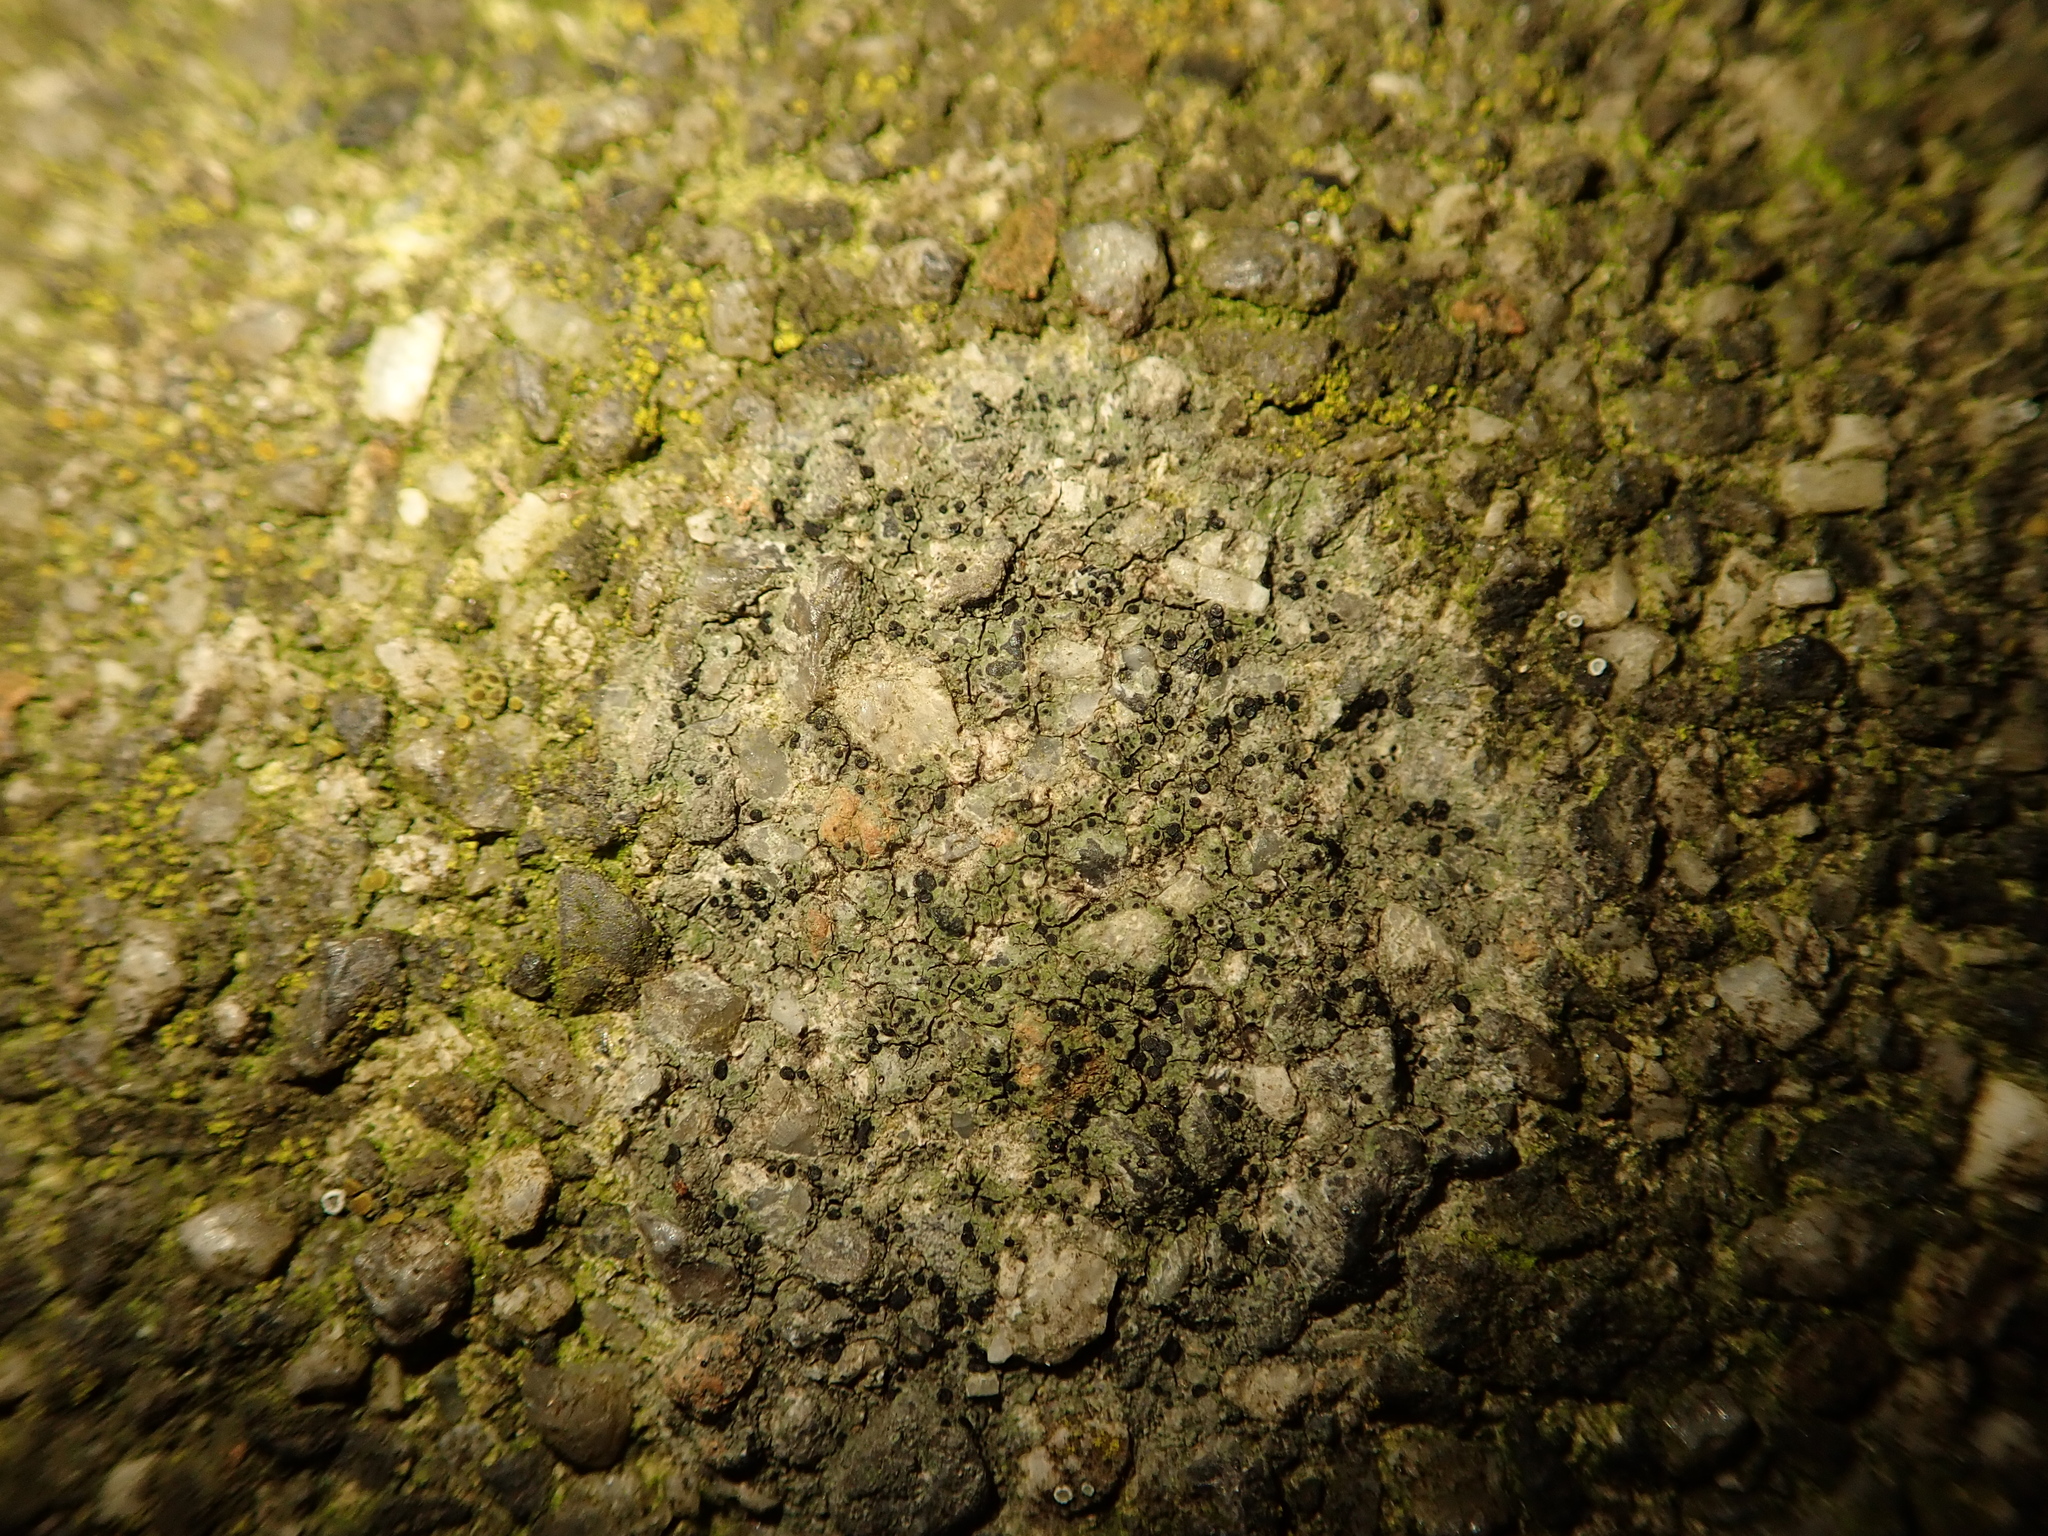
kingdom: Fungi
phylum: Ascomycota
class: Lecanoromycetes
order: Lecanorales
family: Lecanoraceae
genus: Lecidella
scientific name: Lecidella stigmatea
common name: Limestone disc lichen
